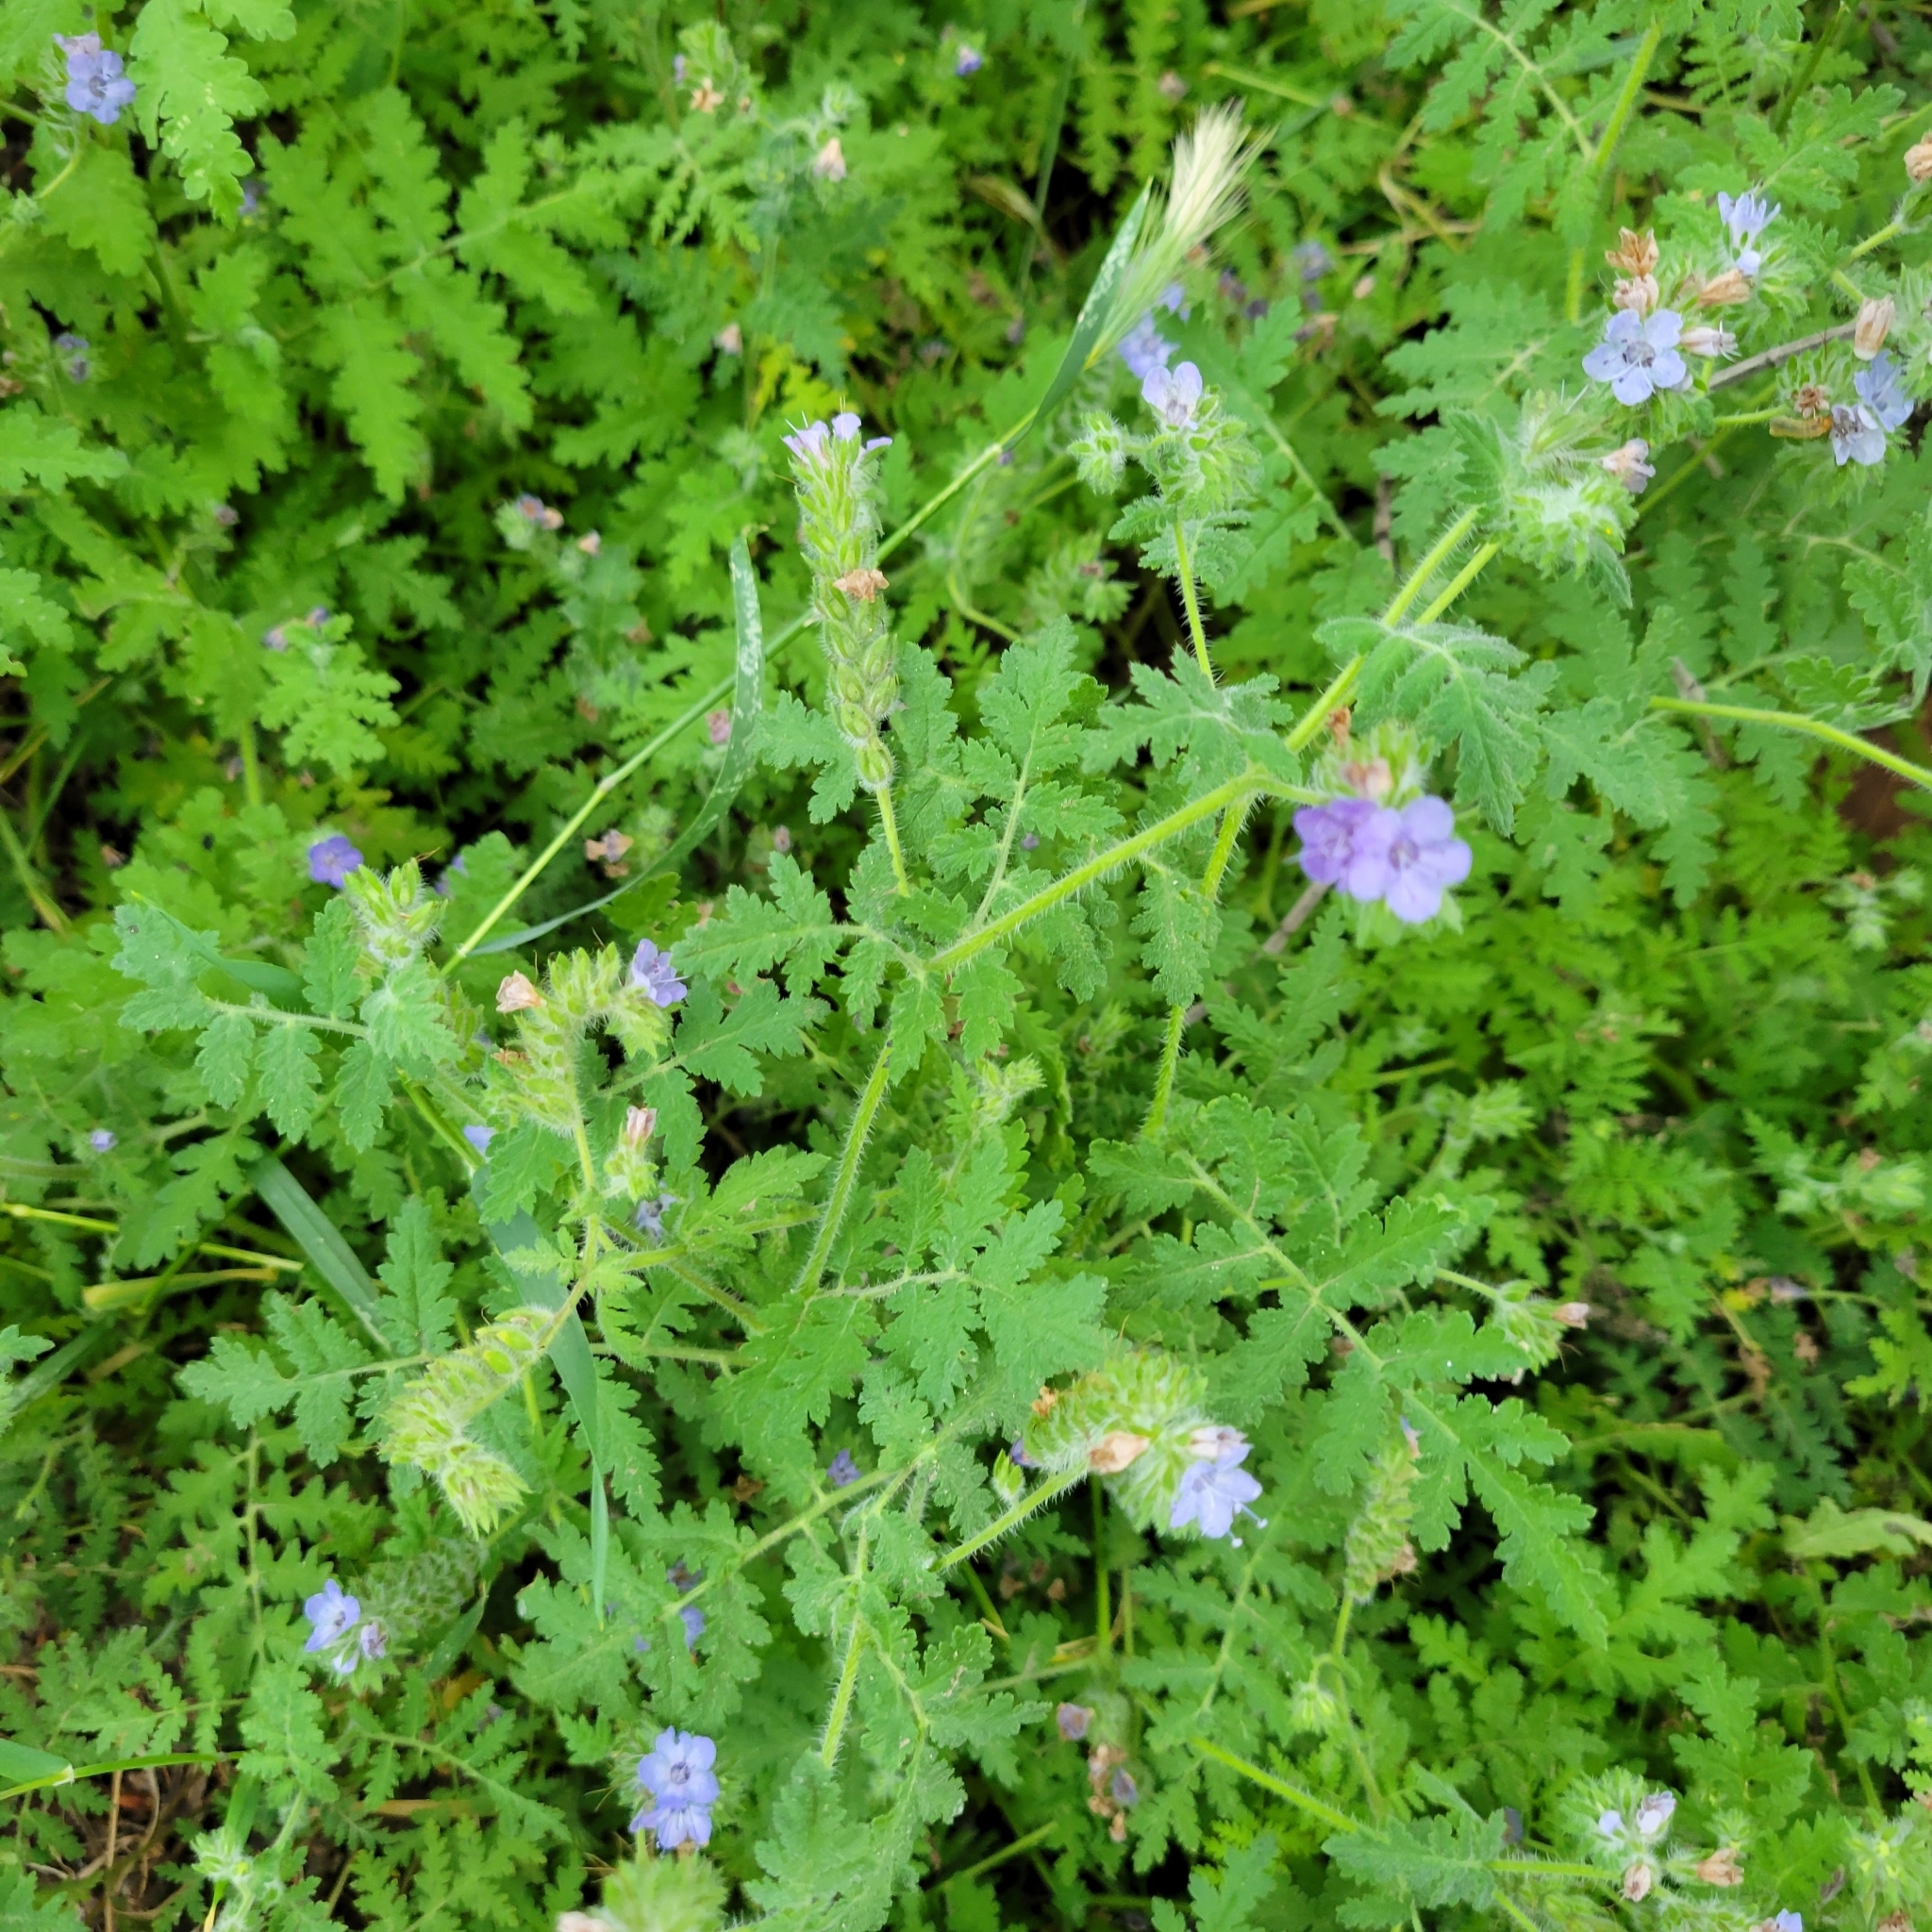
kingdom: Plantae
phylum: Tracheophyta
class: Magnoliopsida
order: Boraginales
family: Hydrophyllaceae
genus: Phacelia
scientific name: Phacelia distans
